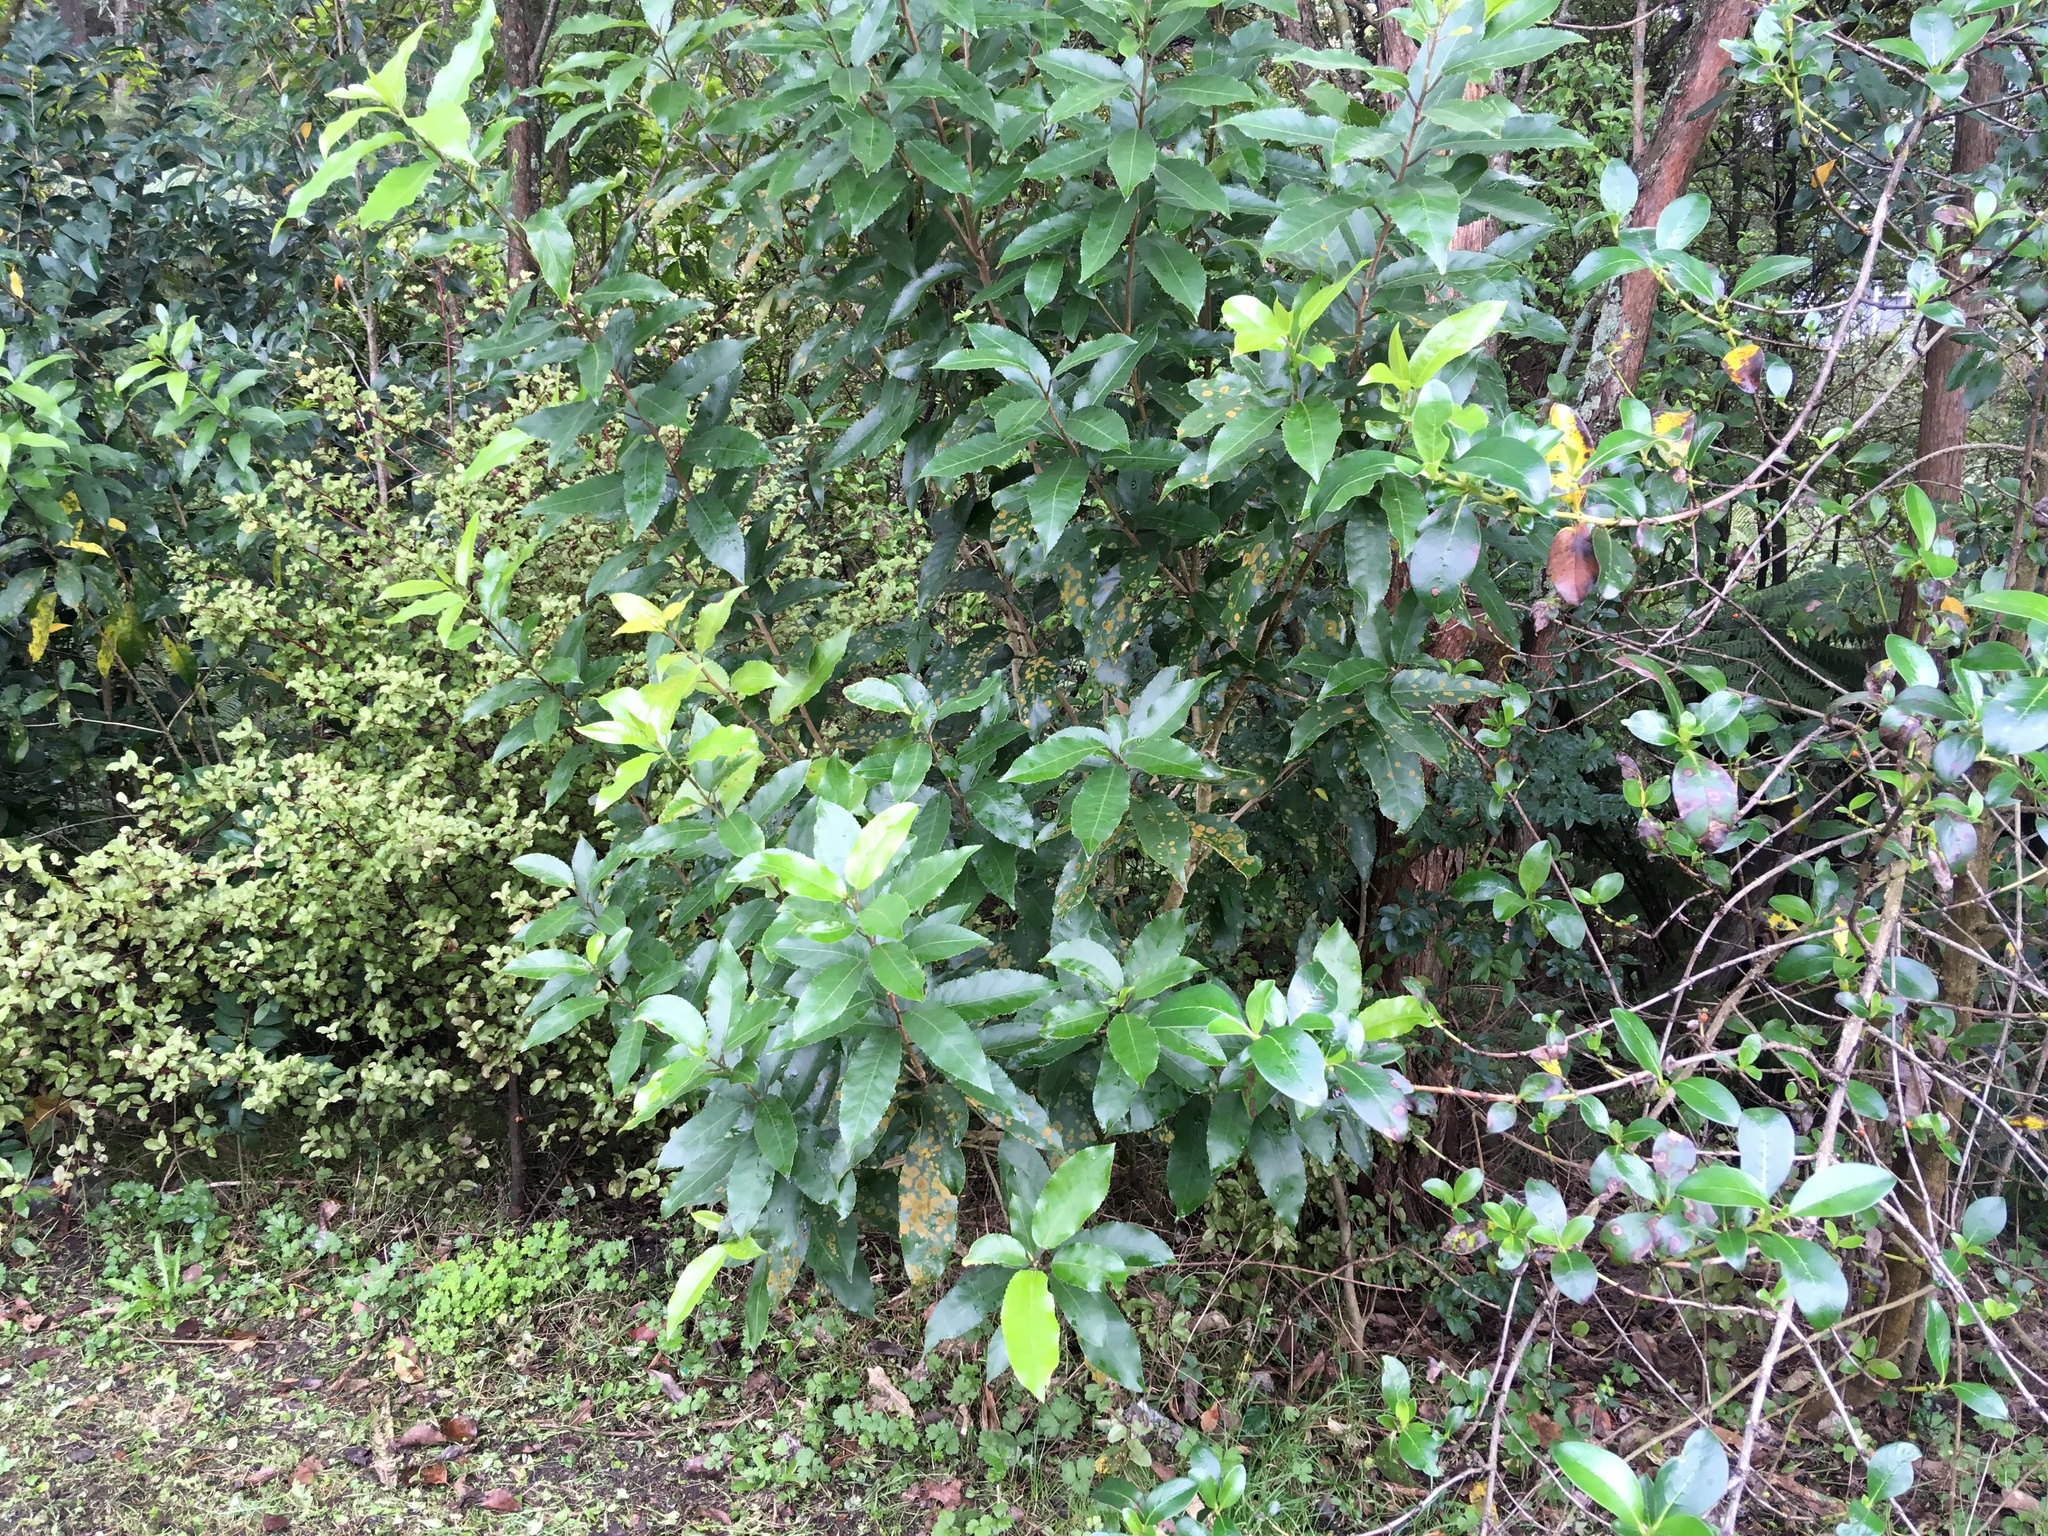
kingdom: Plantae
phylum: Tracheophyta
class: Magnoliopsida
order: Malpighiales
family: Violaceae
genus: Melicytus
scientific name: Melicytus ramiflorus
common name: Mahoe
